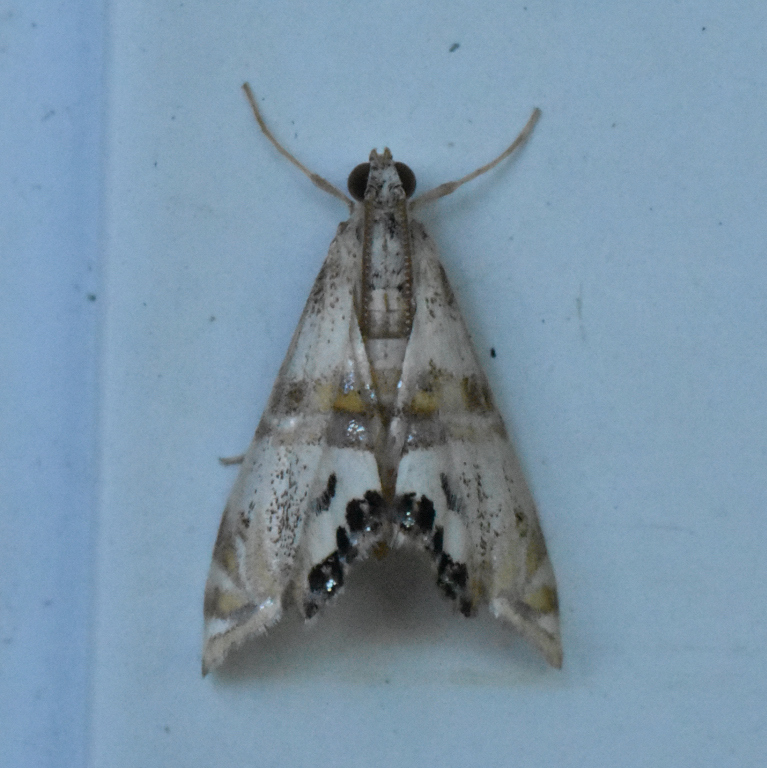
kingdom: Animalia
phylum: Arthropoda
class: Insecta
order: Lepidoptera
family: Crambidae
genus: Petrophila
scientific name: Petrophila bifascialis
